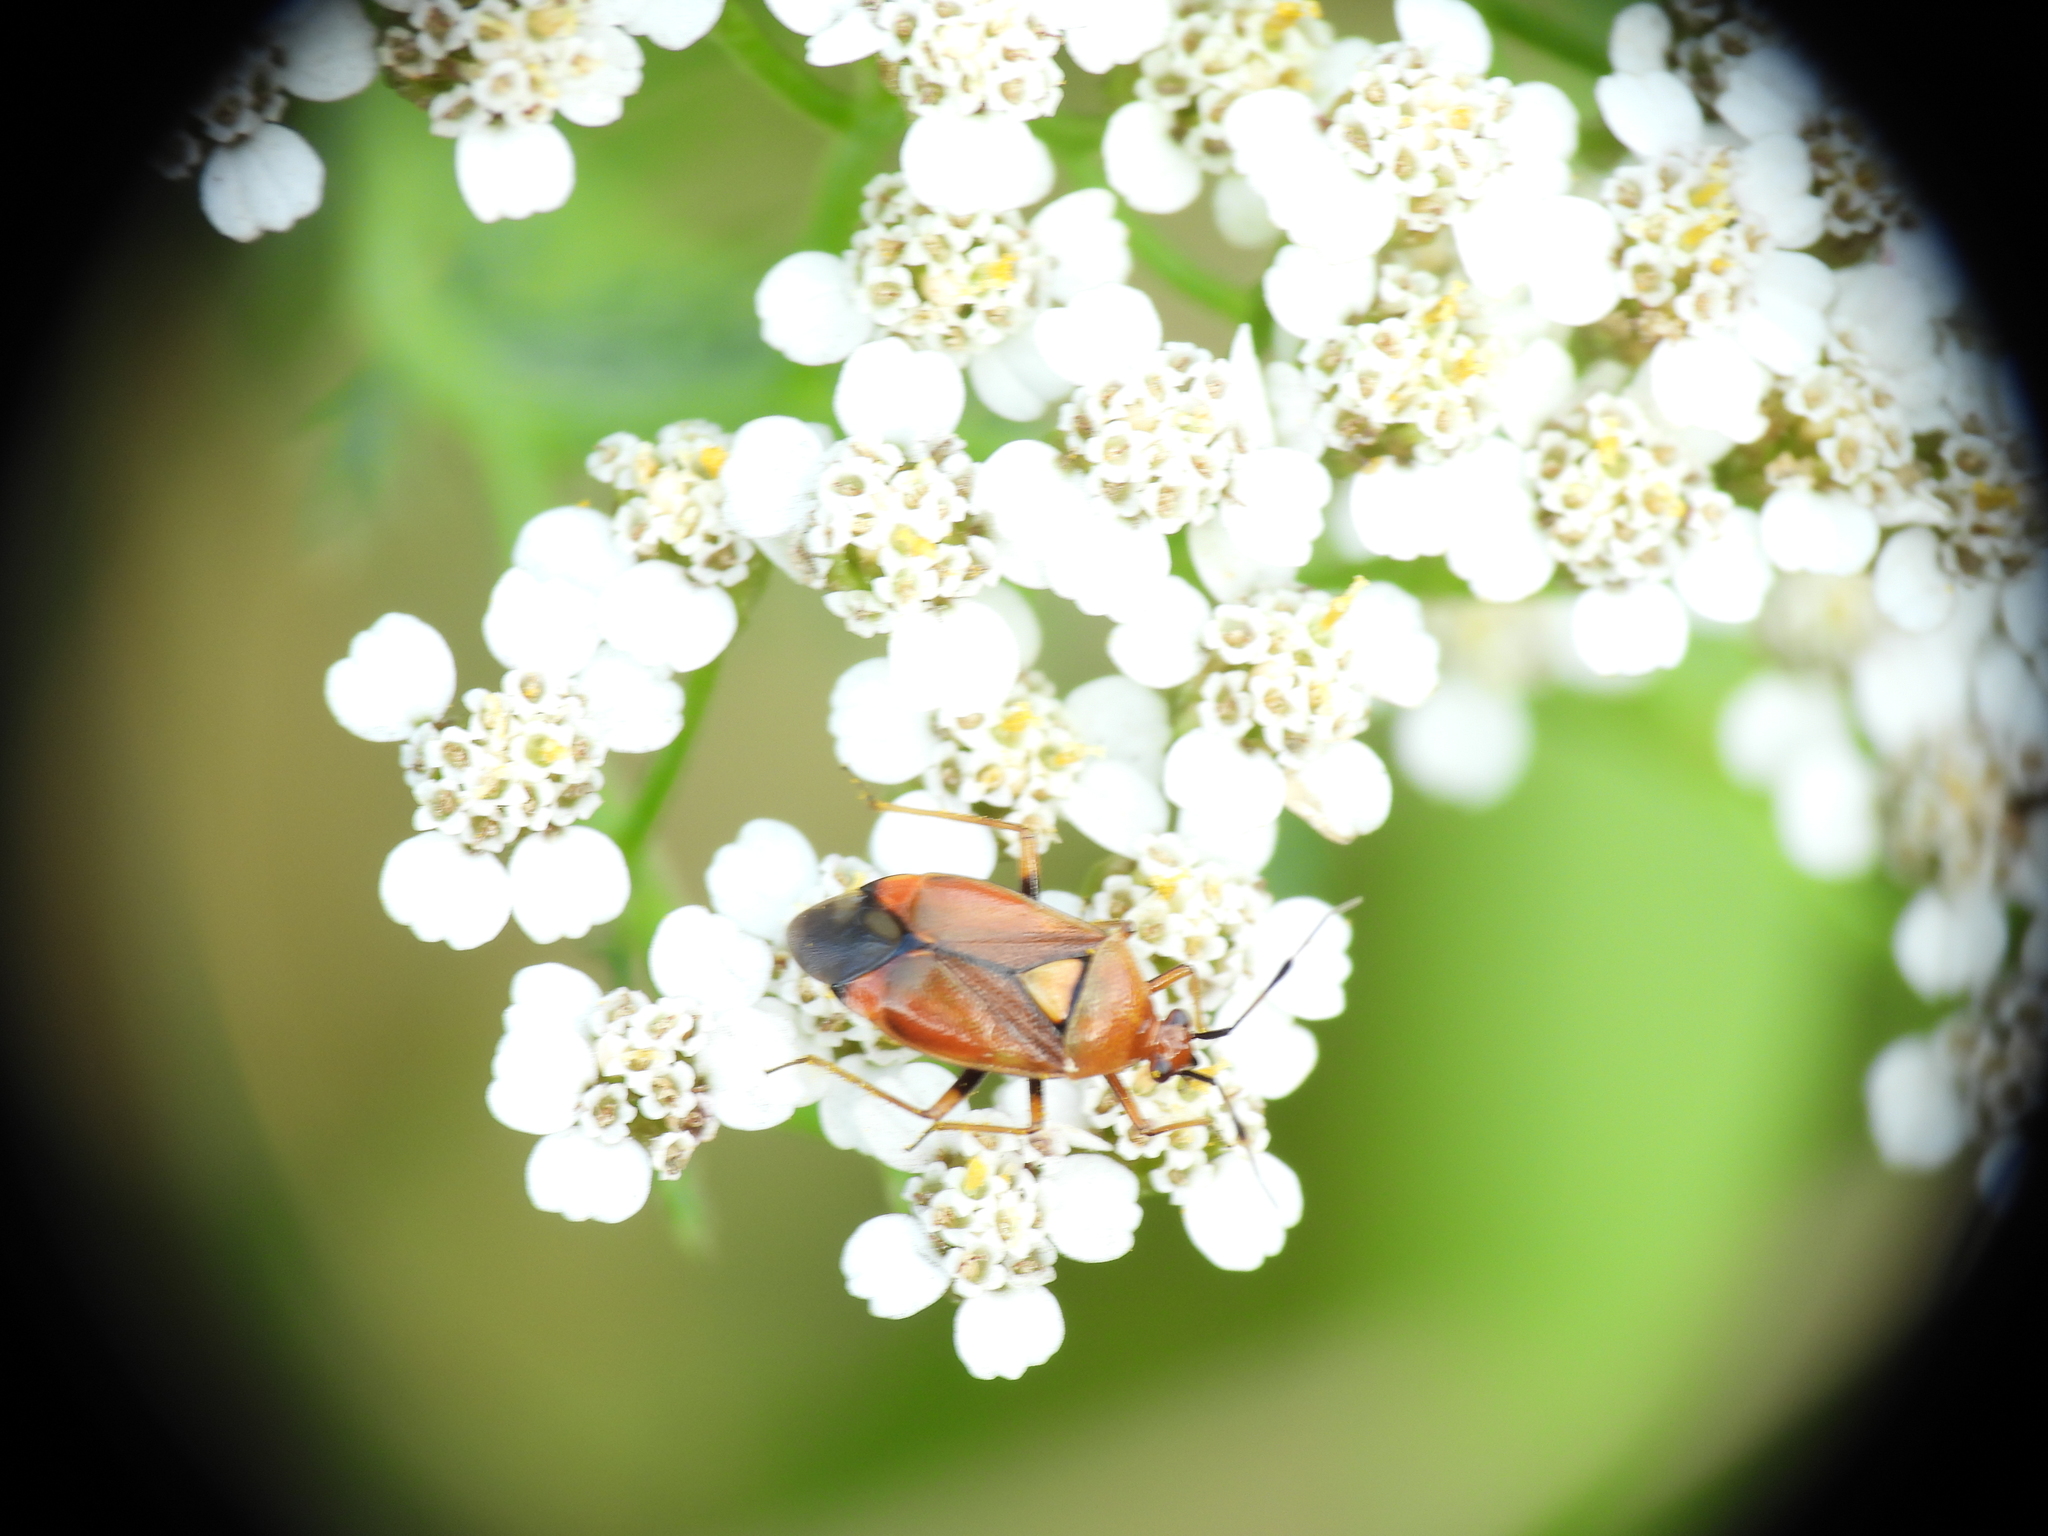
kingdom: Animalia
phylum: Arthropoda
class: Insecta
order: Hemiptera
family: Miridae
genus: Deraeocoris
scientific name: Deraeocoris ruber
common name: Plant bug
